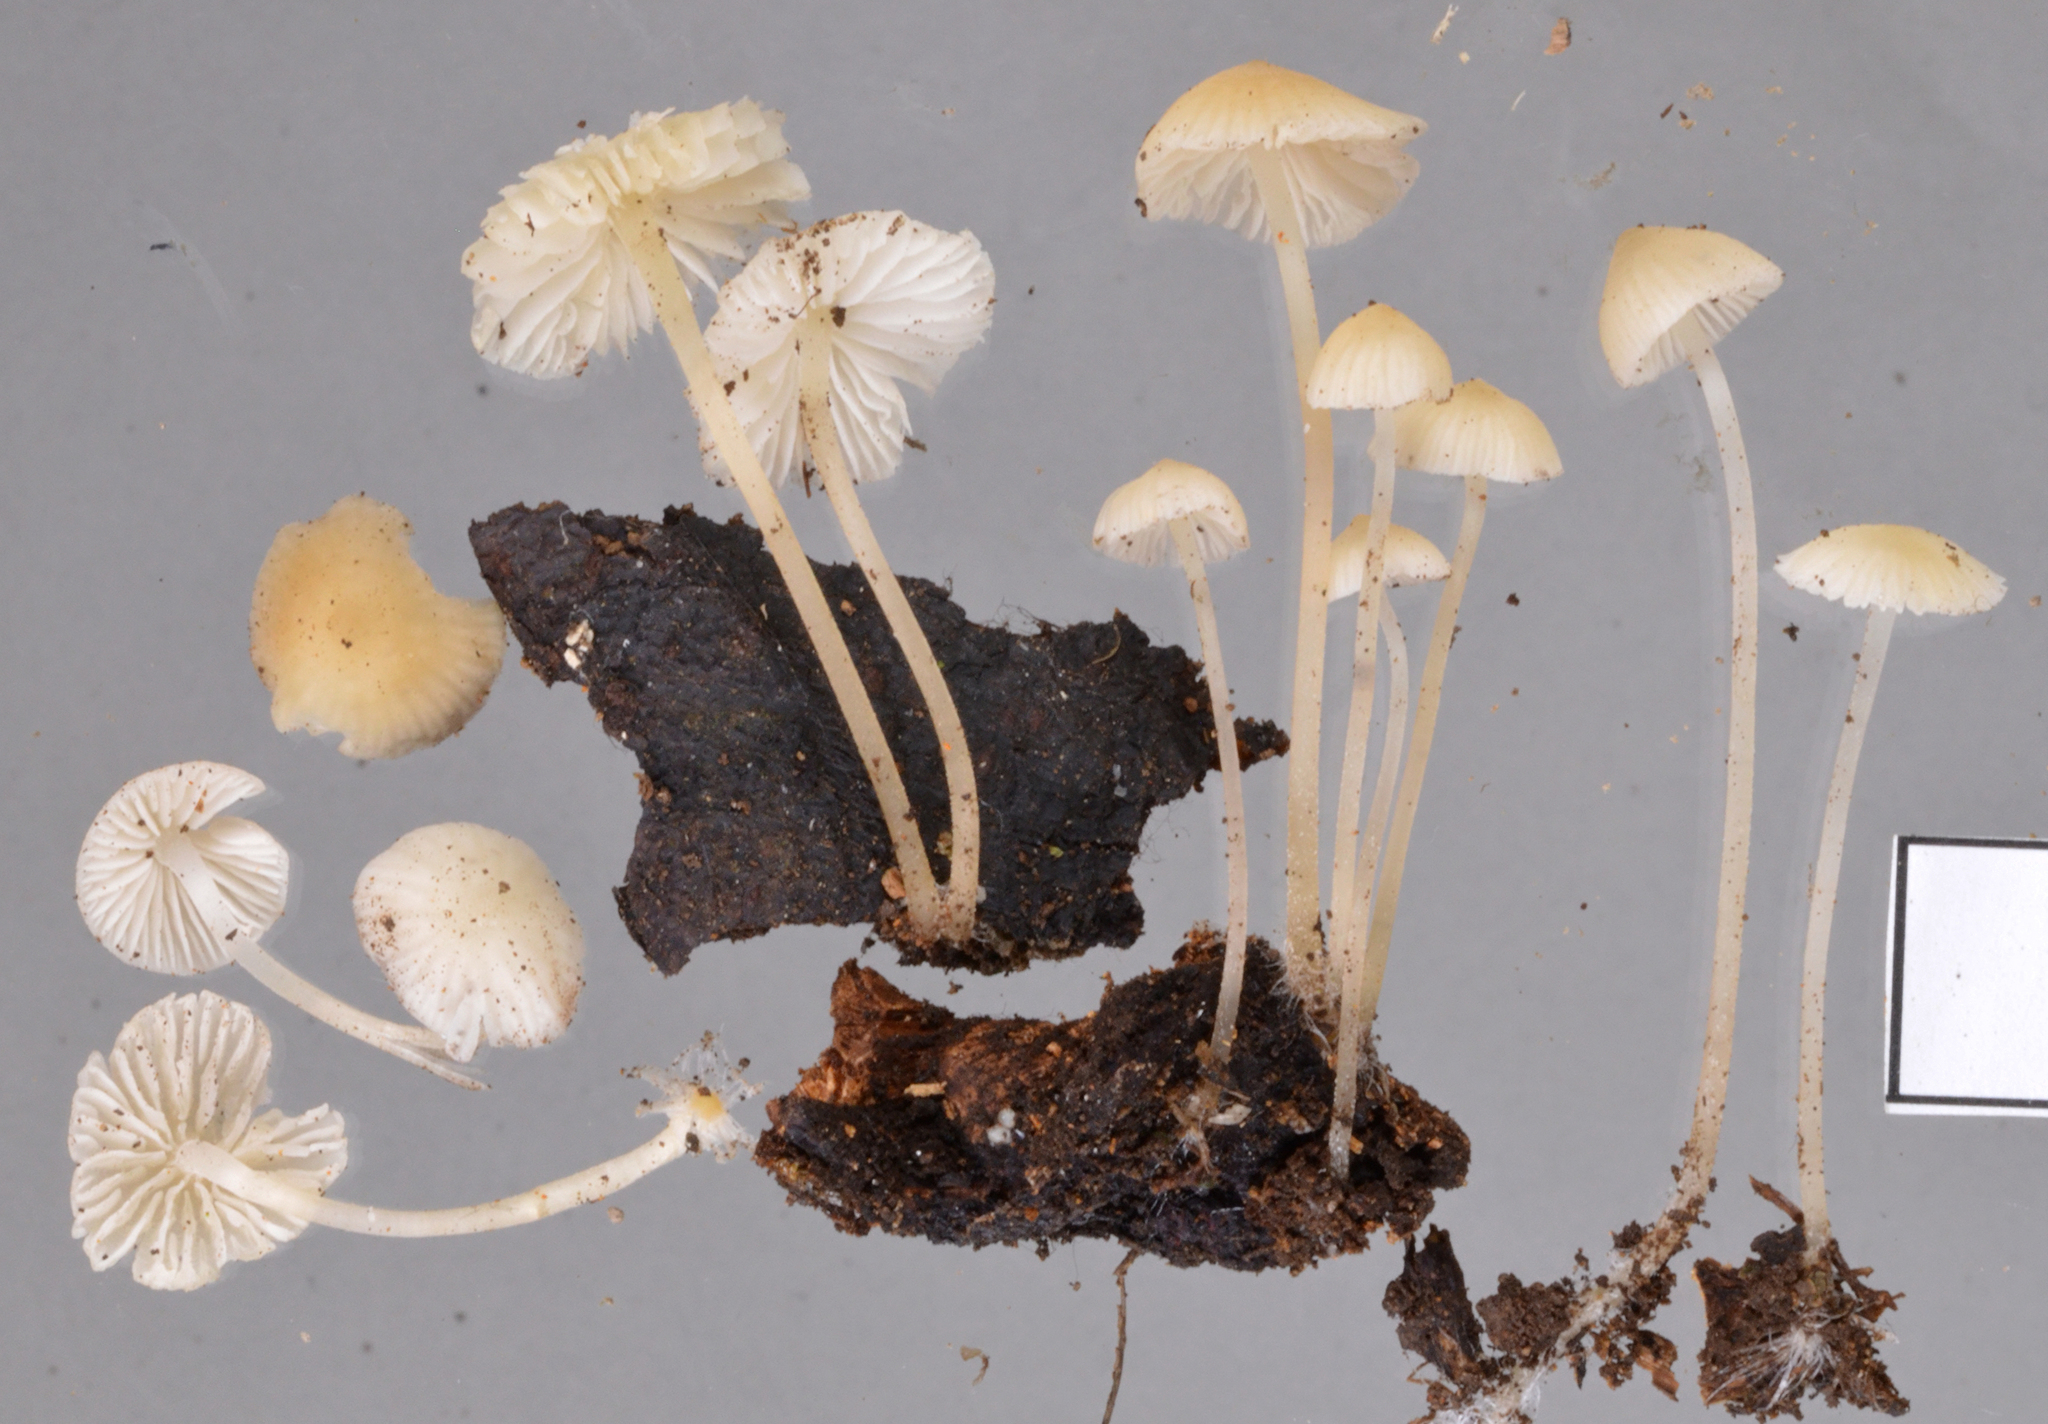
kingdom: Fungi
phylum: Basidiomycota
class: Agaricomycetes
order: Agaricales
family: Porotheleaceae
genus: Phloeomana
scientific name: Phloeomana minutula
